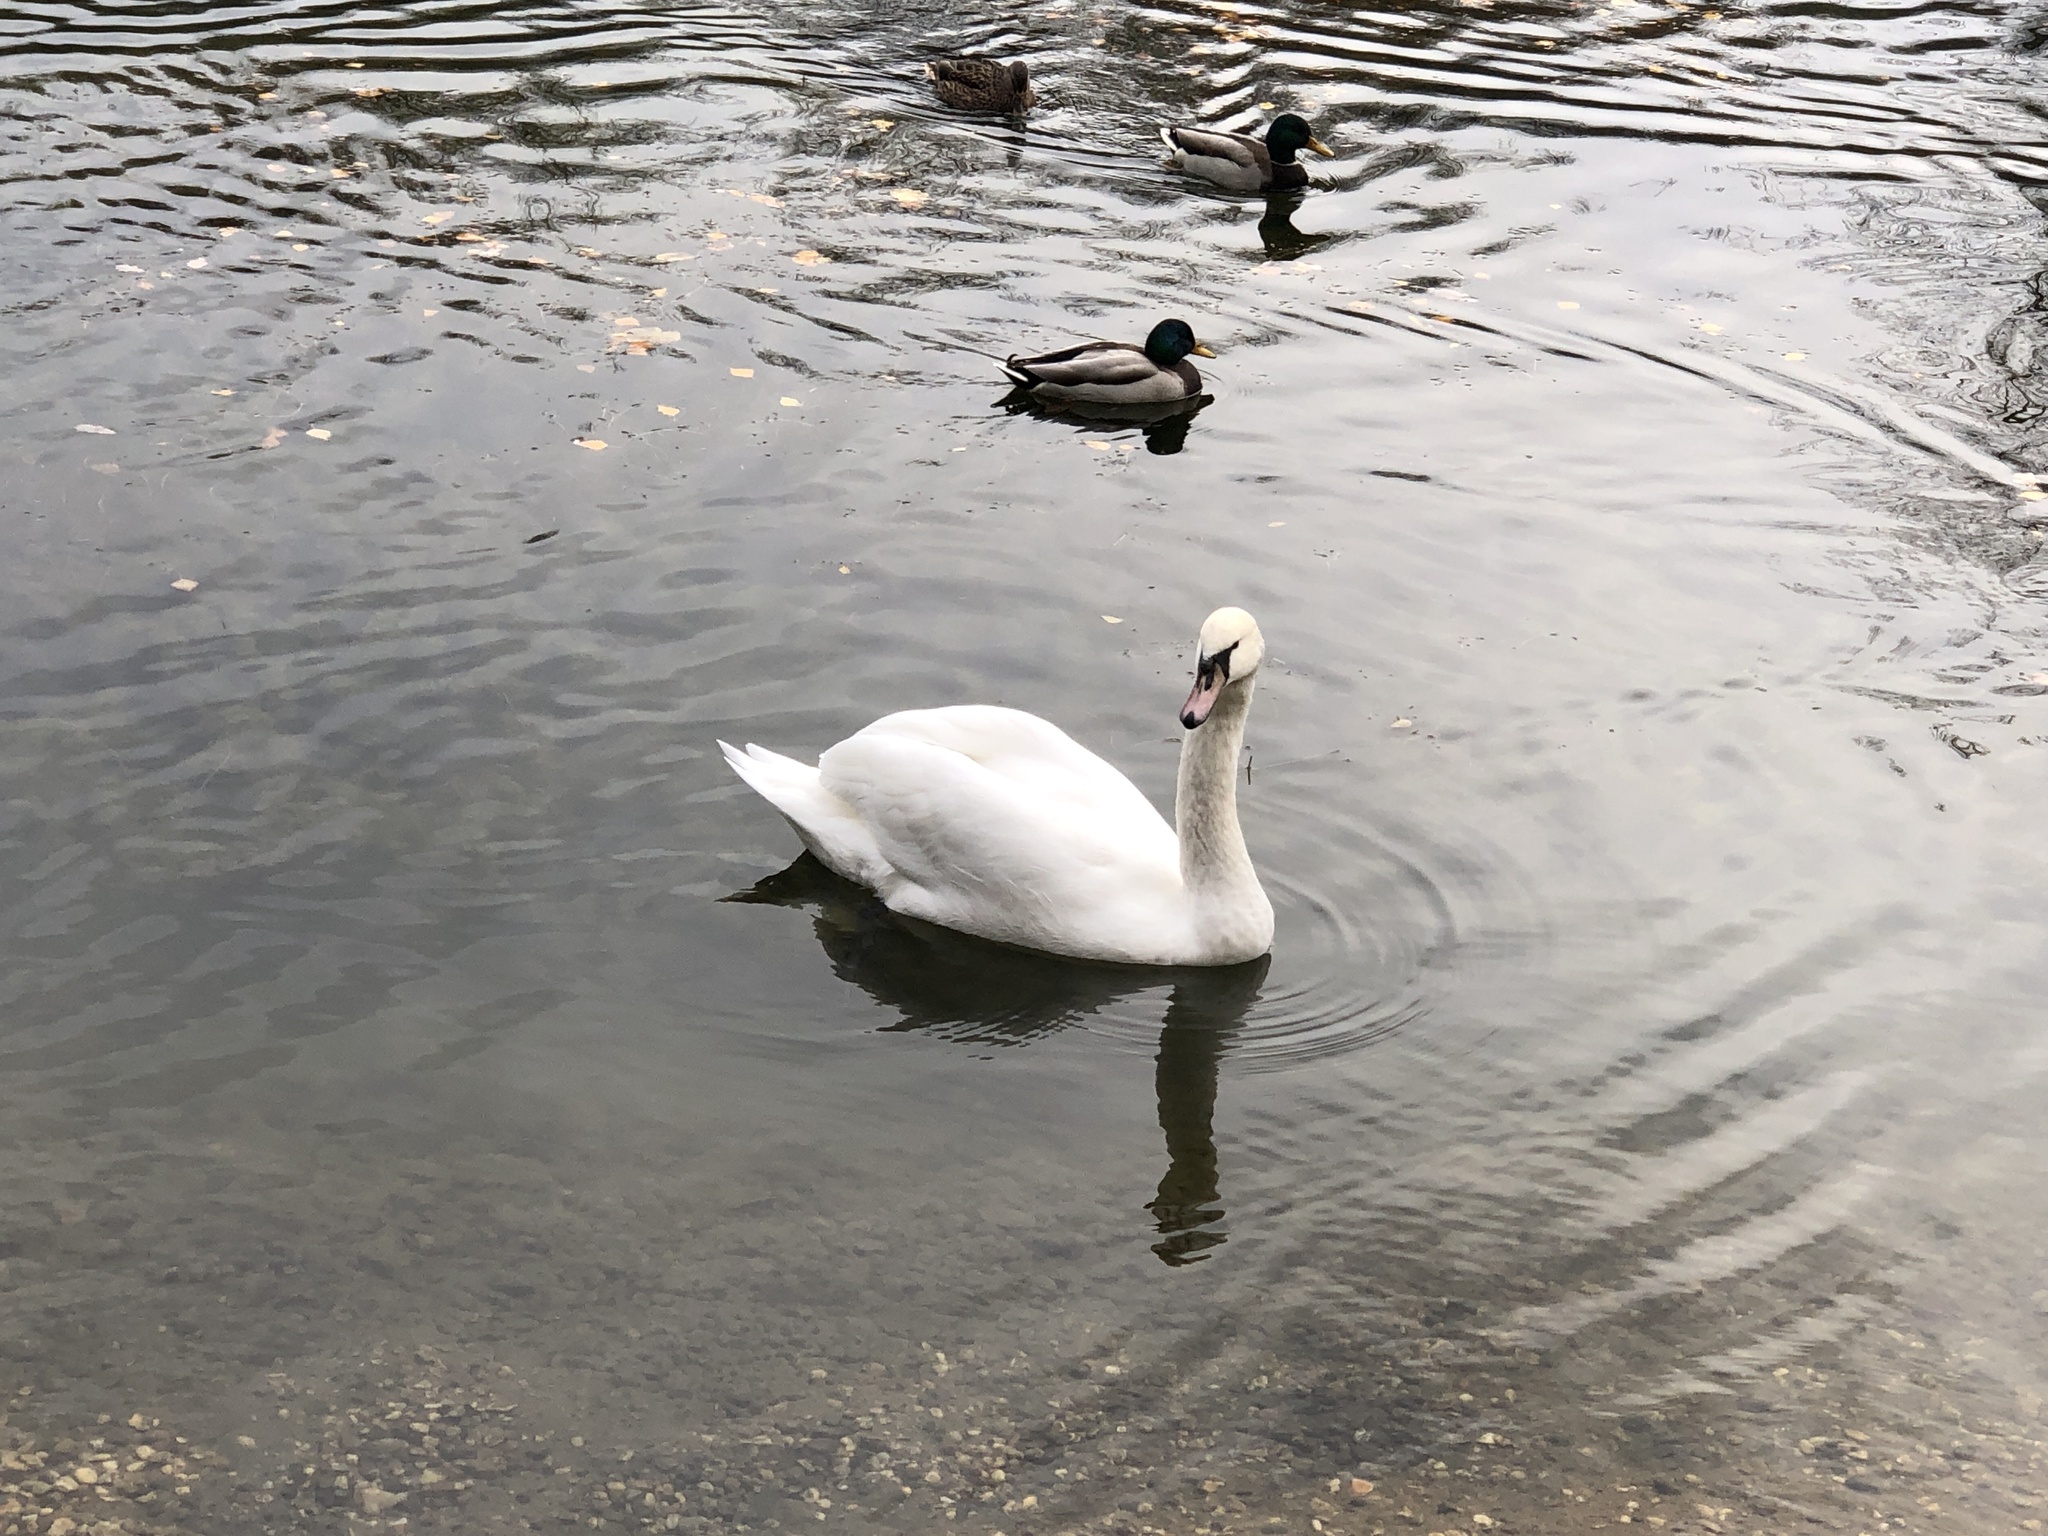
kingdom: Animalia
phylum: Chordata
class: Aves
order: Anseriformes
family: Anatidae
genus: Cygnus
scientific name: Cygnus olor
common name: Mute swan
